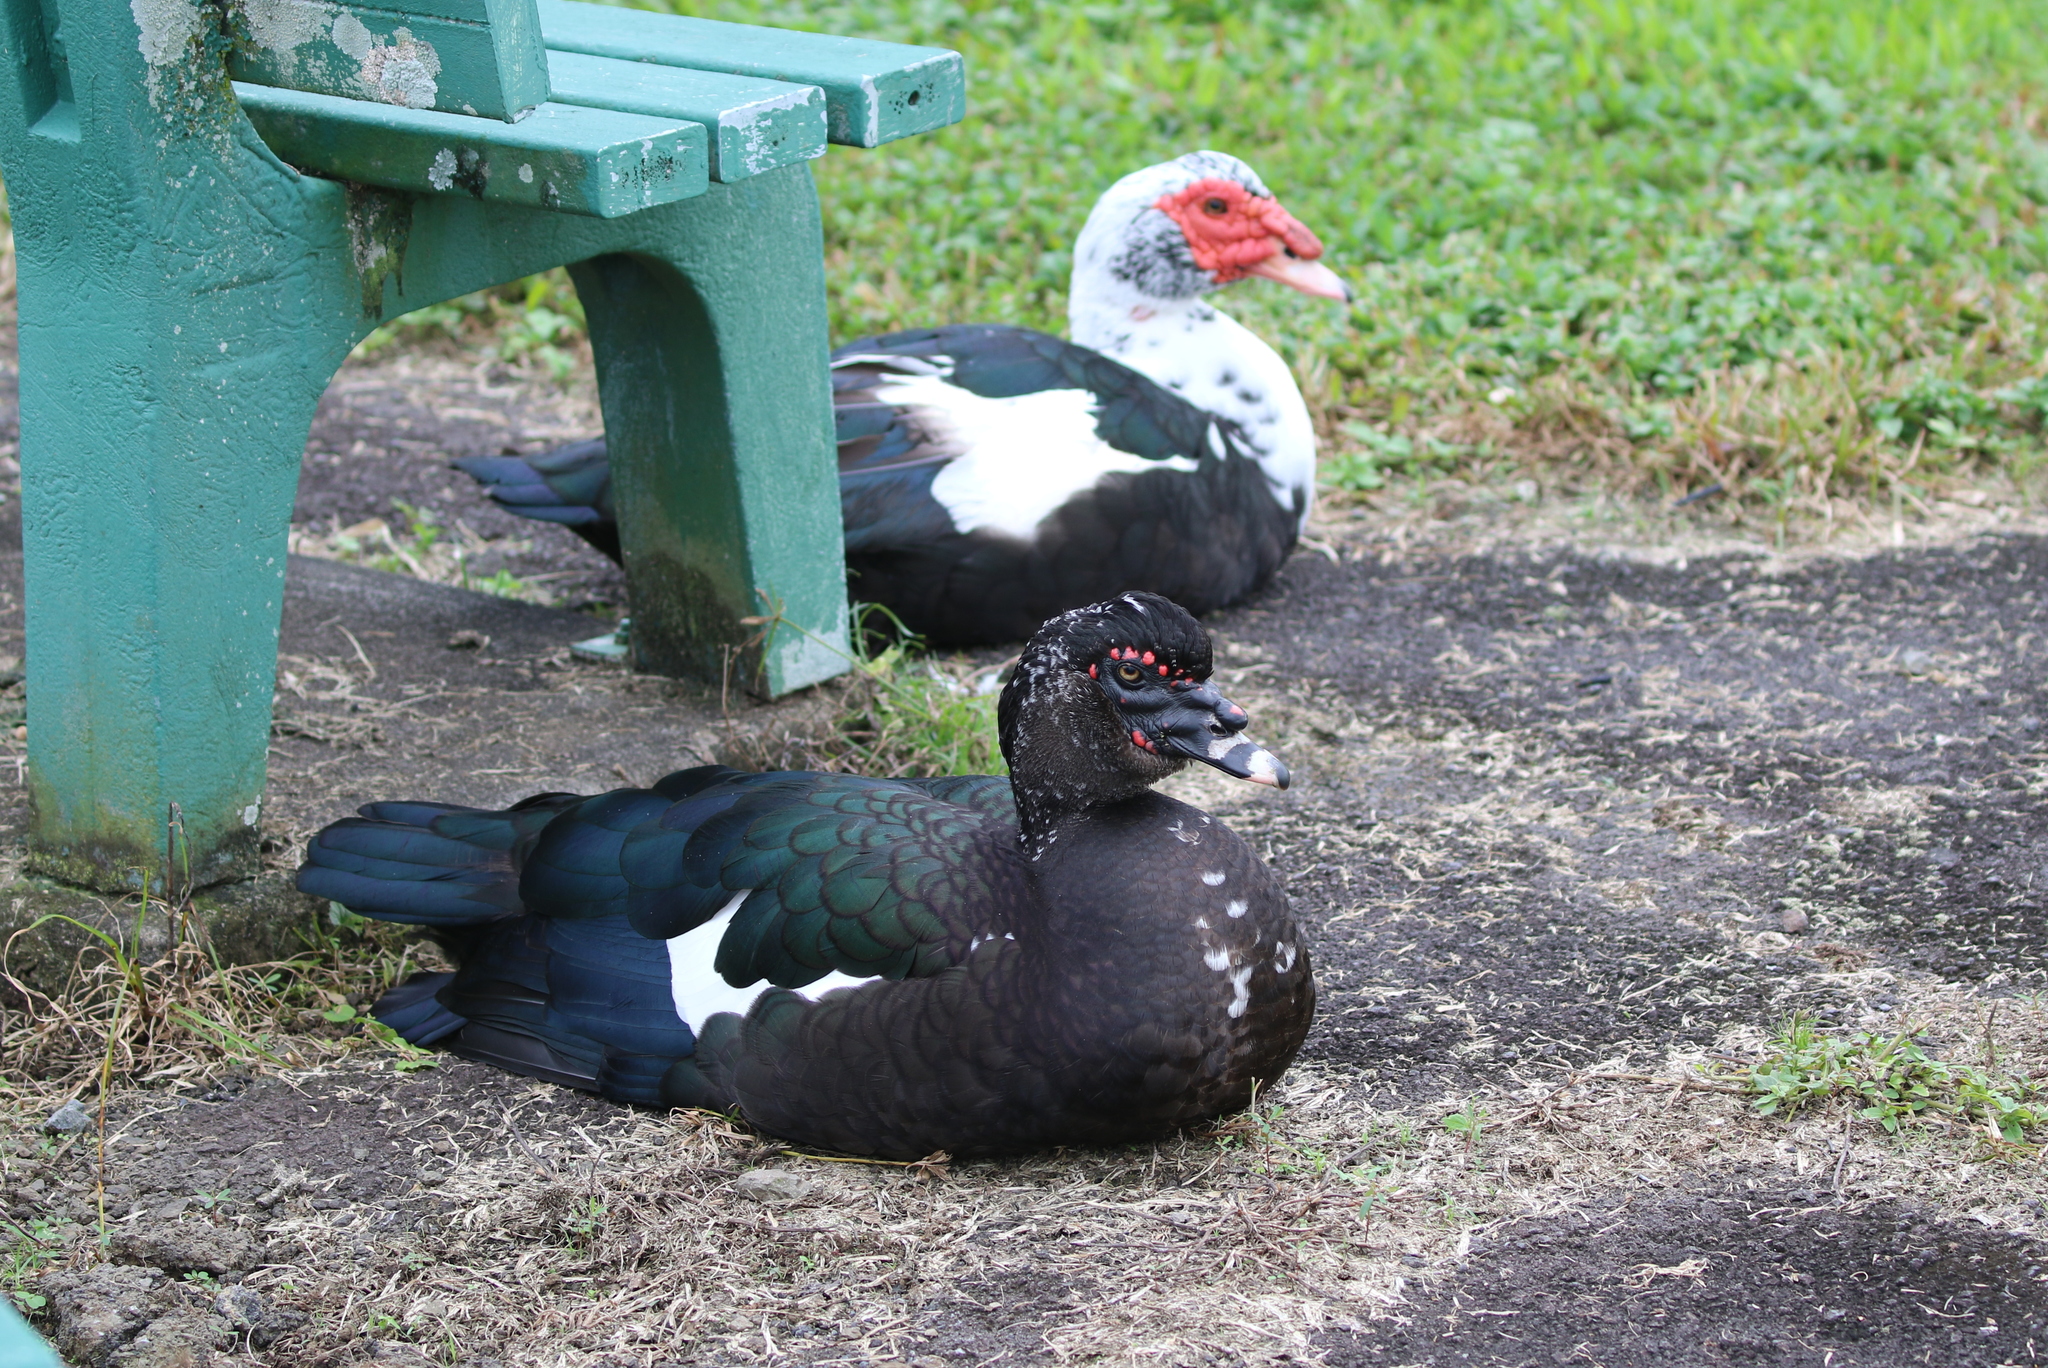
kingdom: Animalia
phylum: Chordata
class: Aves
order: Anseriformes
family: Anatidae
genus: Cairina
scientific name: Cairina moschata
